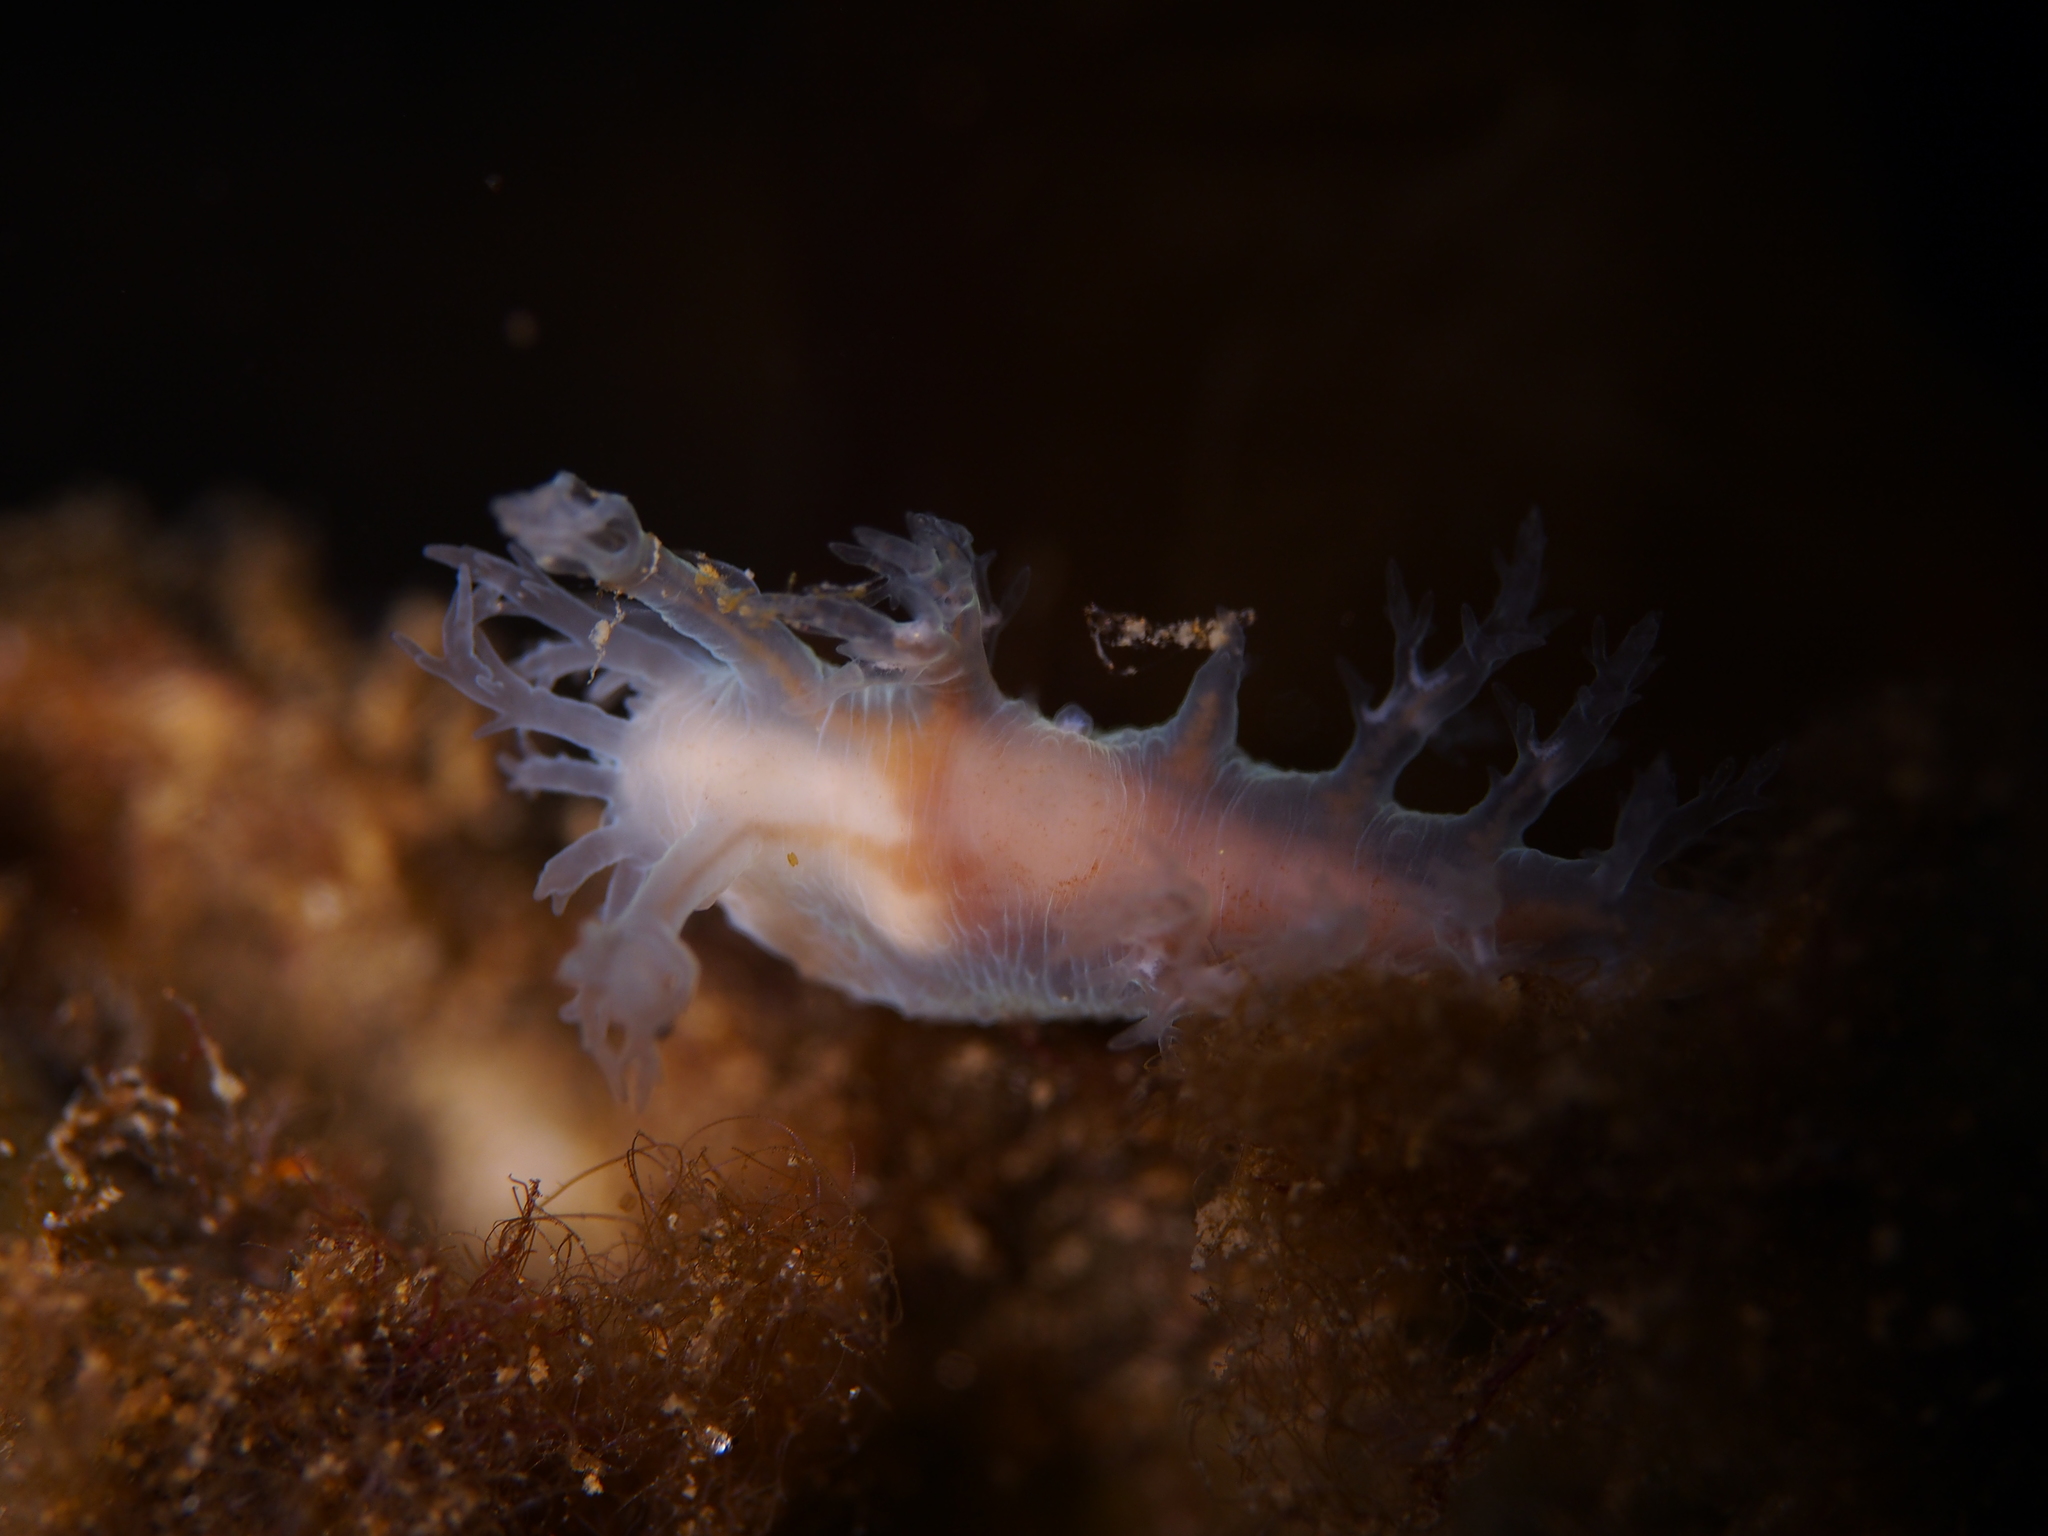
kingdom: Animalia
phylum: Mollusca
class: Gastropoda
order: Nudibranchia
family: Dendronotidae
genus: Dendronotus
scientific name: Dendronotus frondosus
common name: Bushy-backed nudibranch
